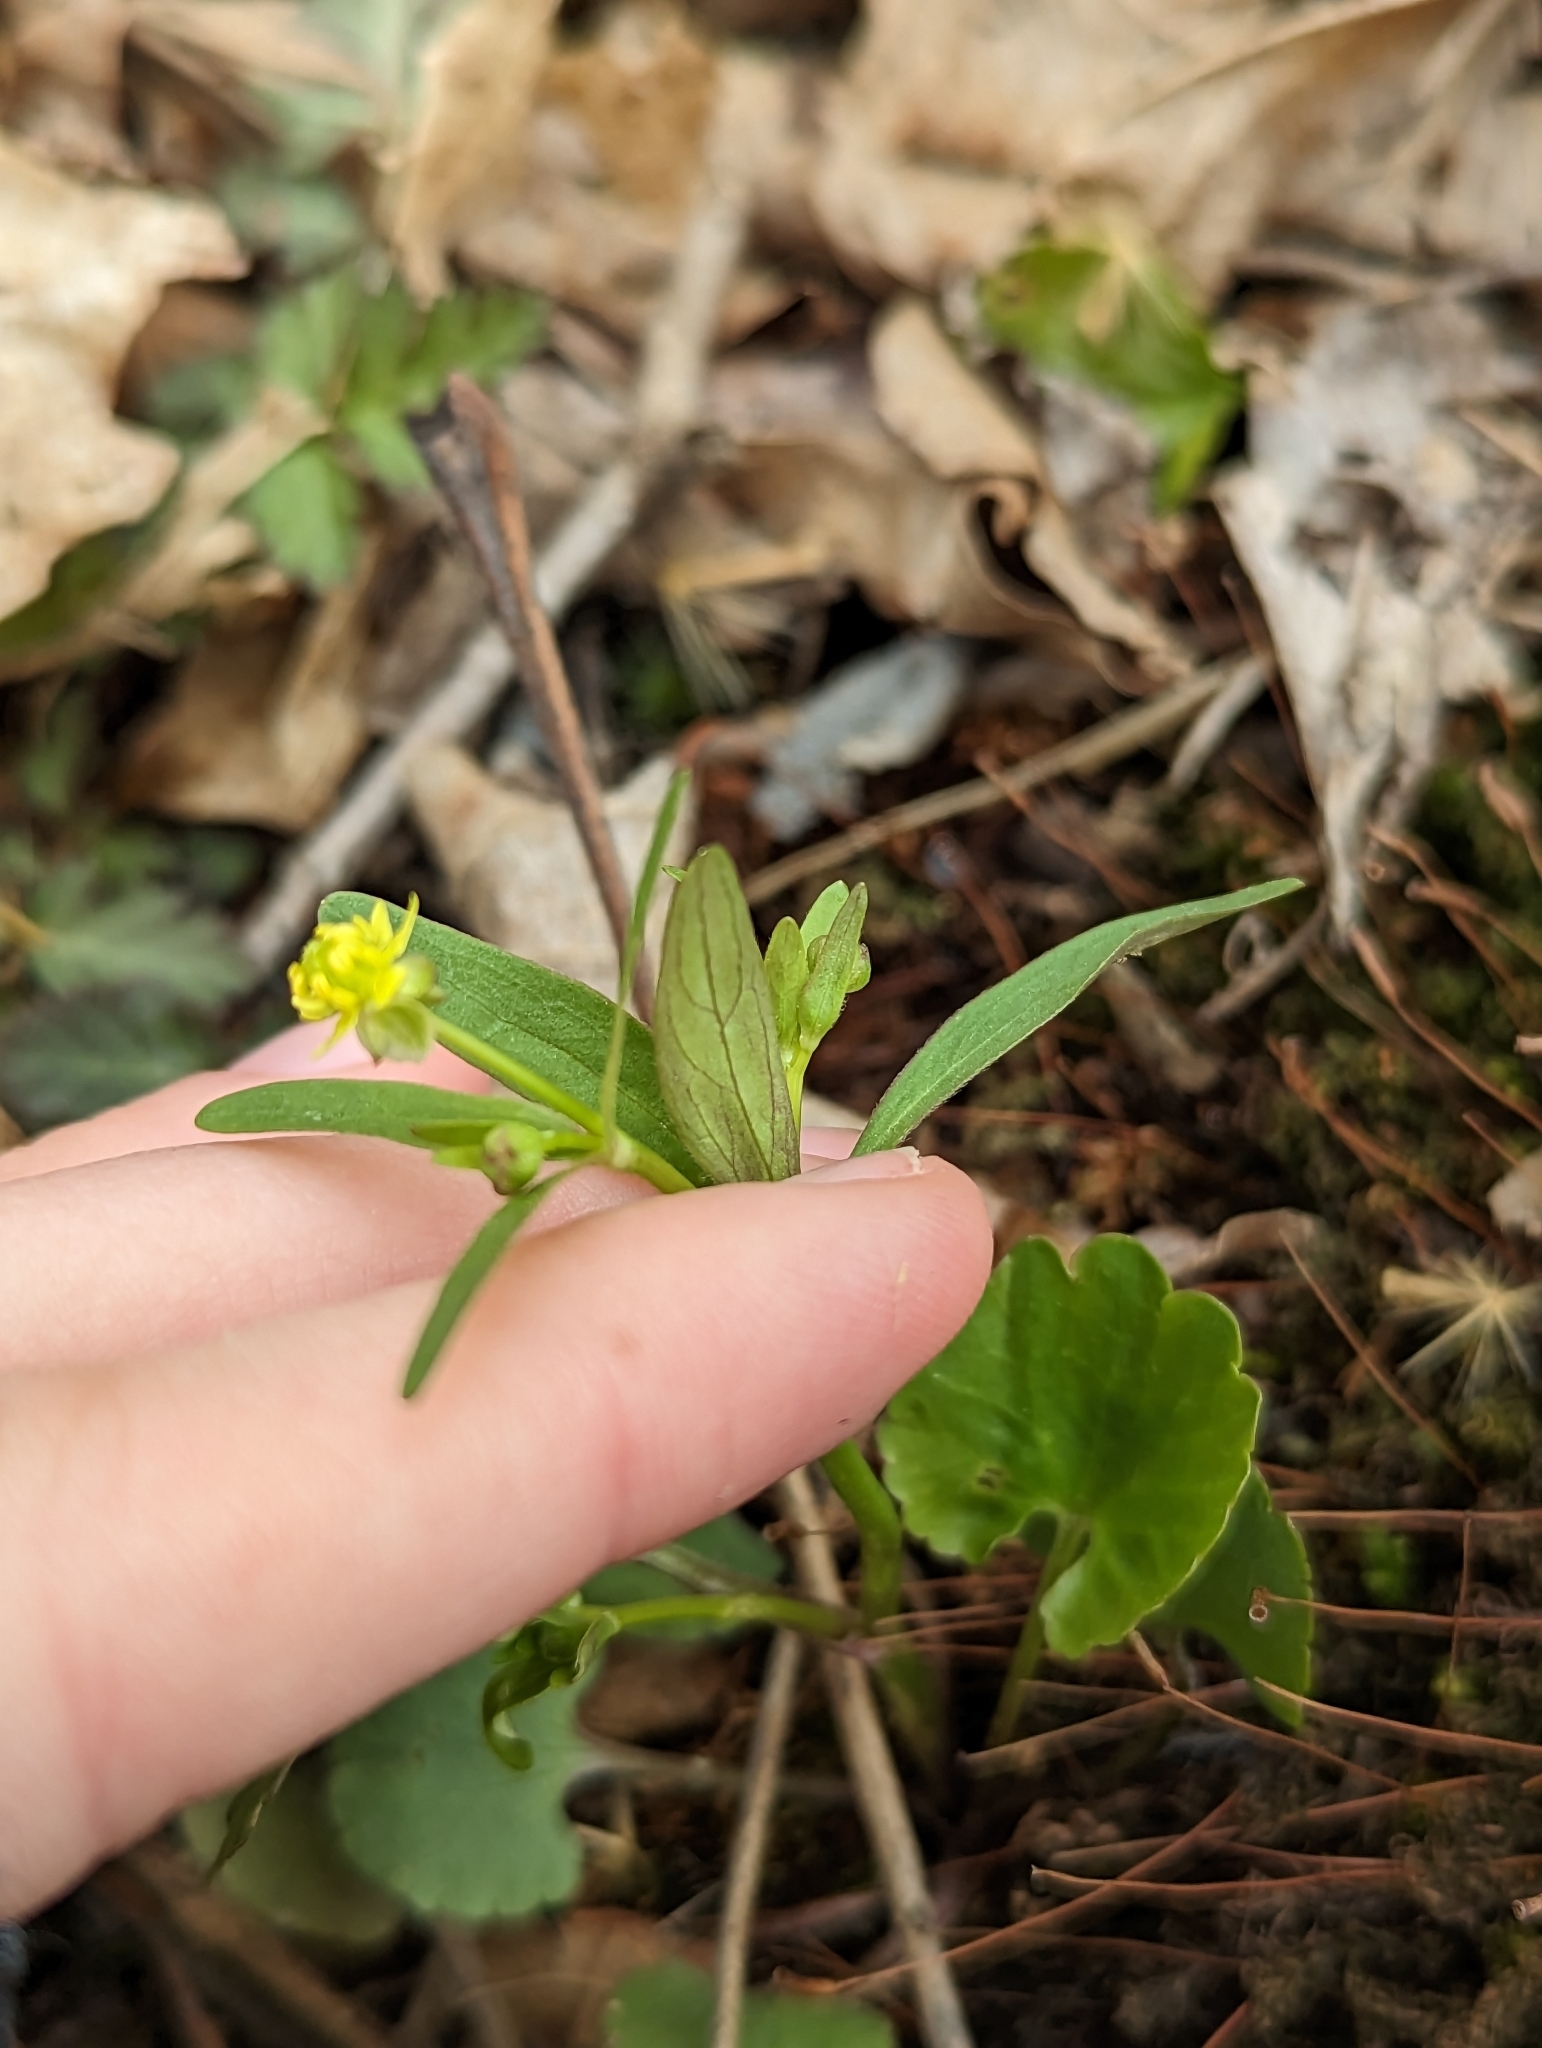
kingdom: Plantae
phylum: Tracheophyta
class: Magnoliopsida
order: Ranunculales
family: Ranunculaceae
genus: Ranunculus
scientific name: Ranunculus abortivus
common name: Early wood buttercup
